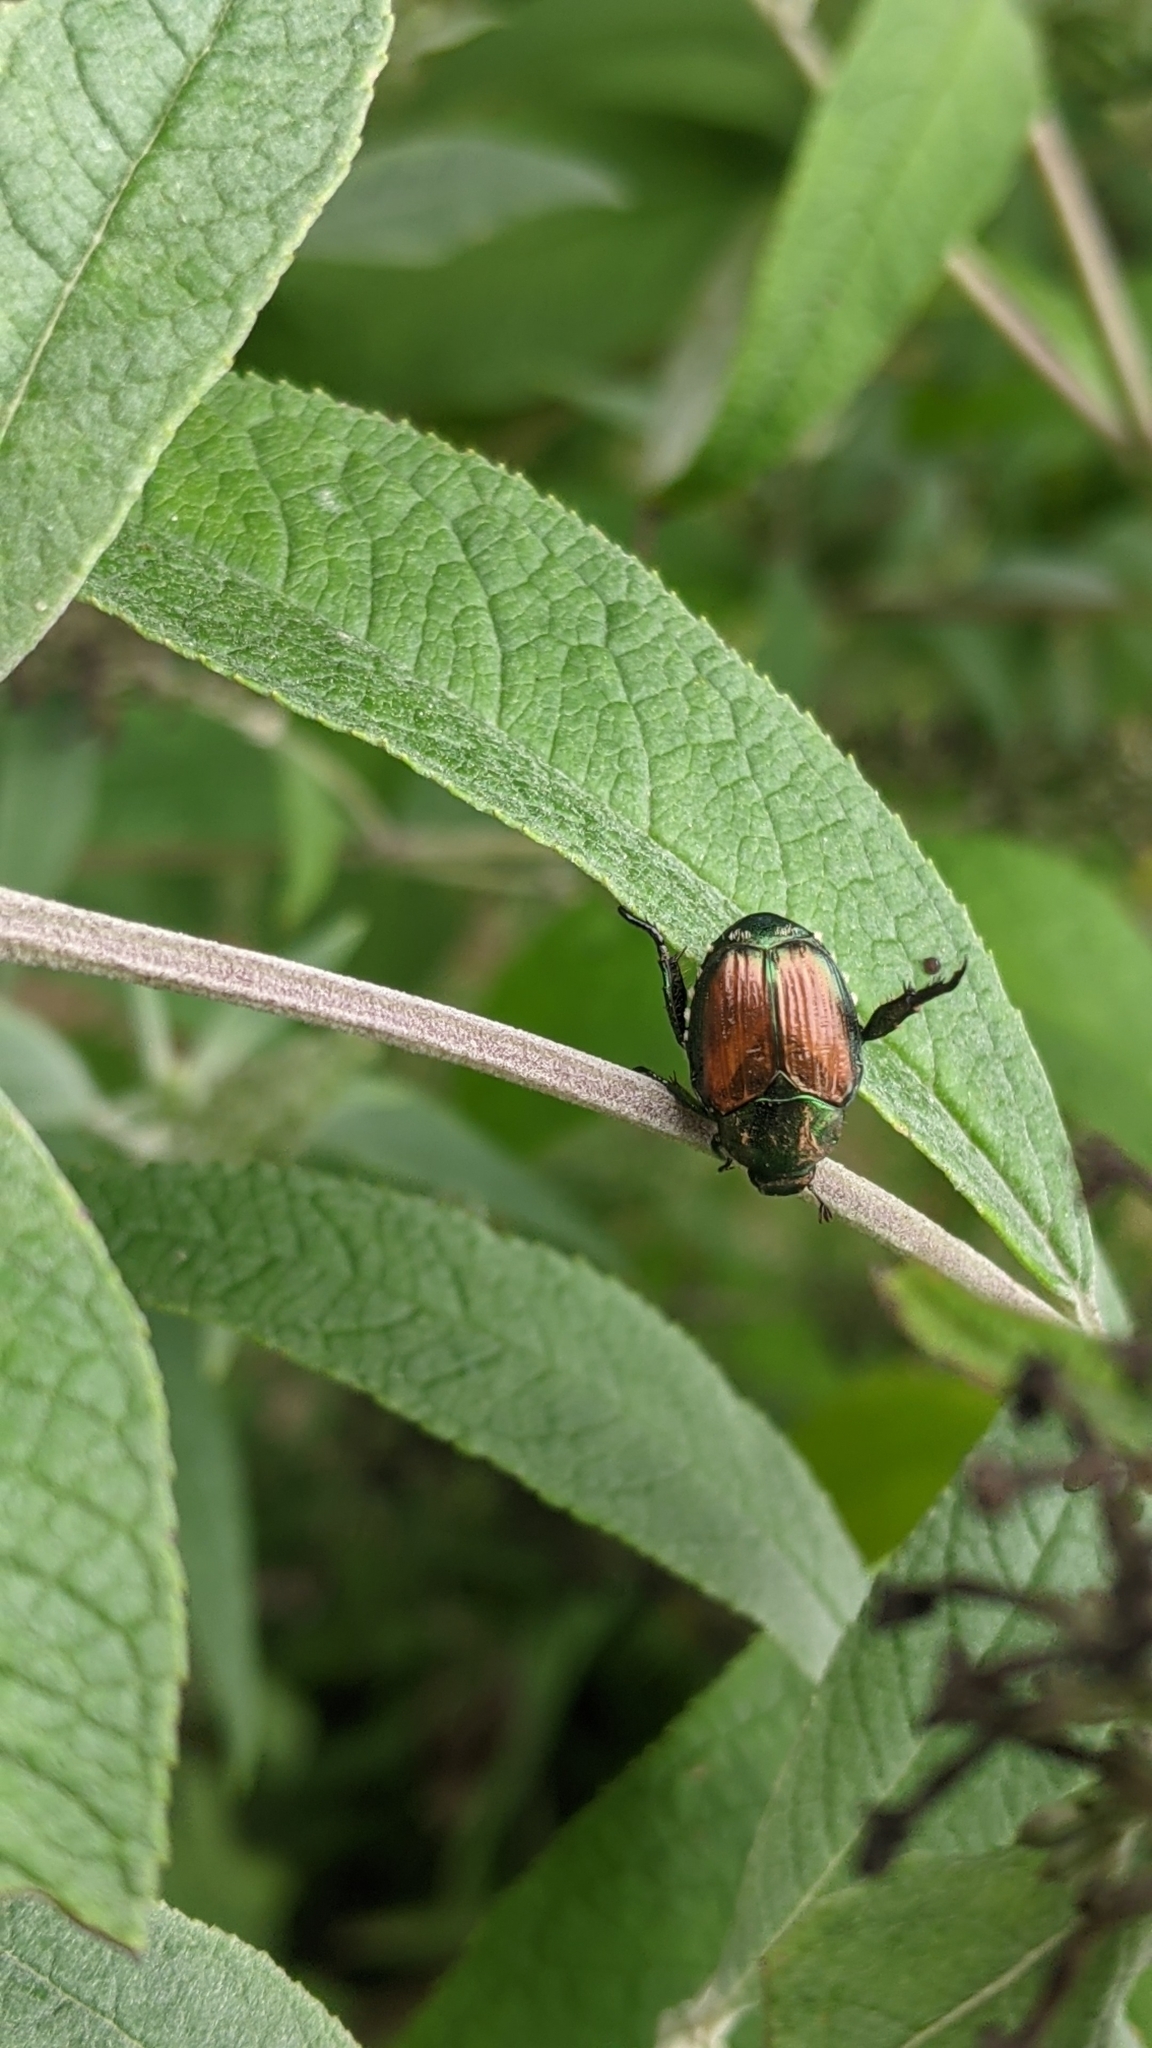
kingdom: Animalia
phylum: Arthropoda
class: Insecta
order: Coleoptera
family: Scarabaeidae
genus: Popillia
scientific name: Popillia japonica
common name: Japanese beetle
